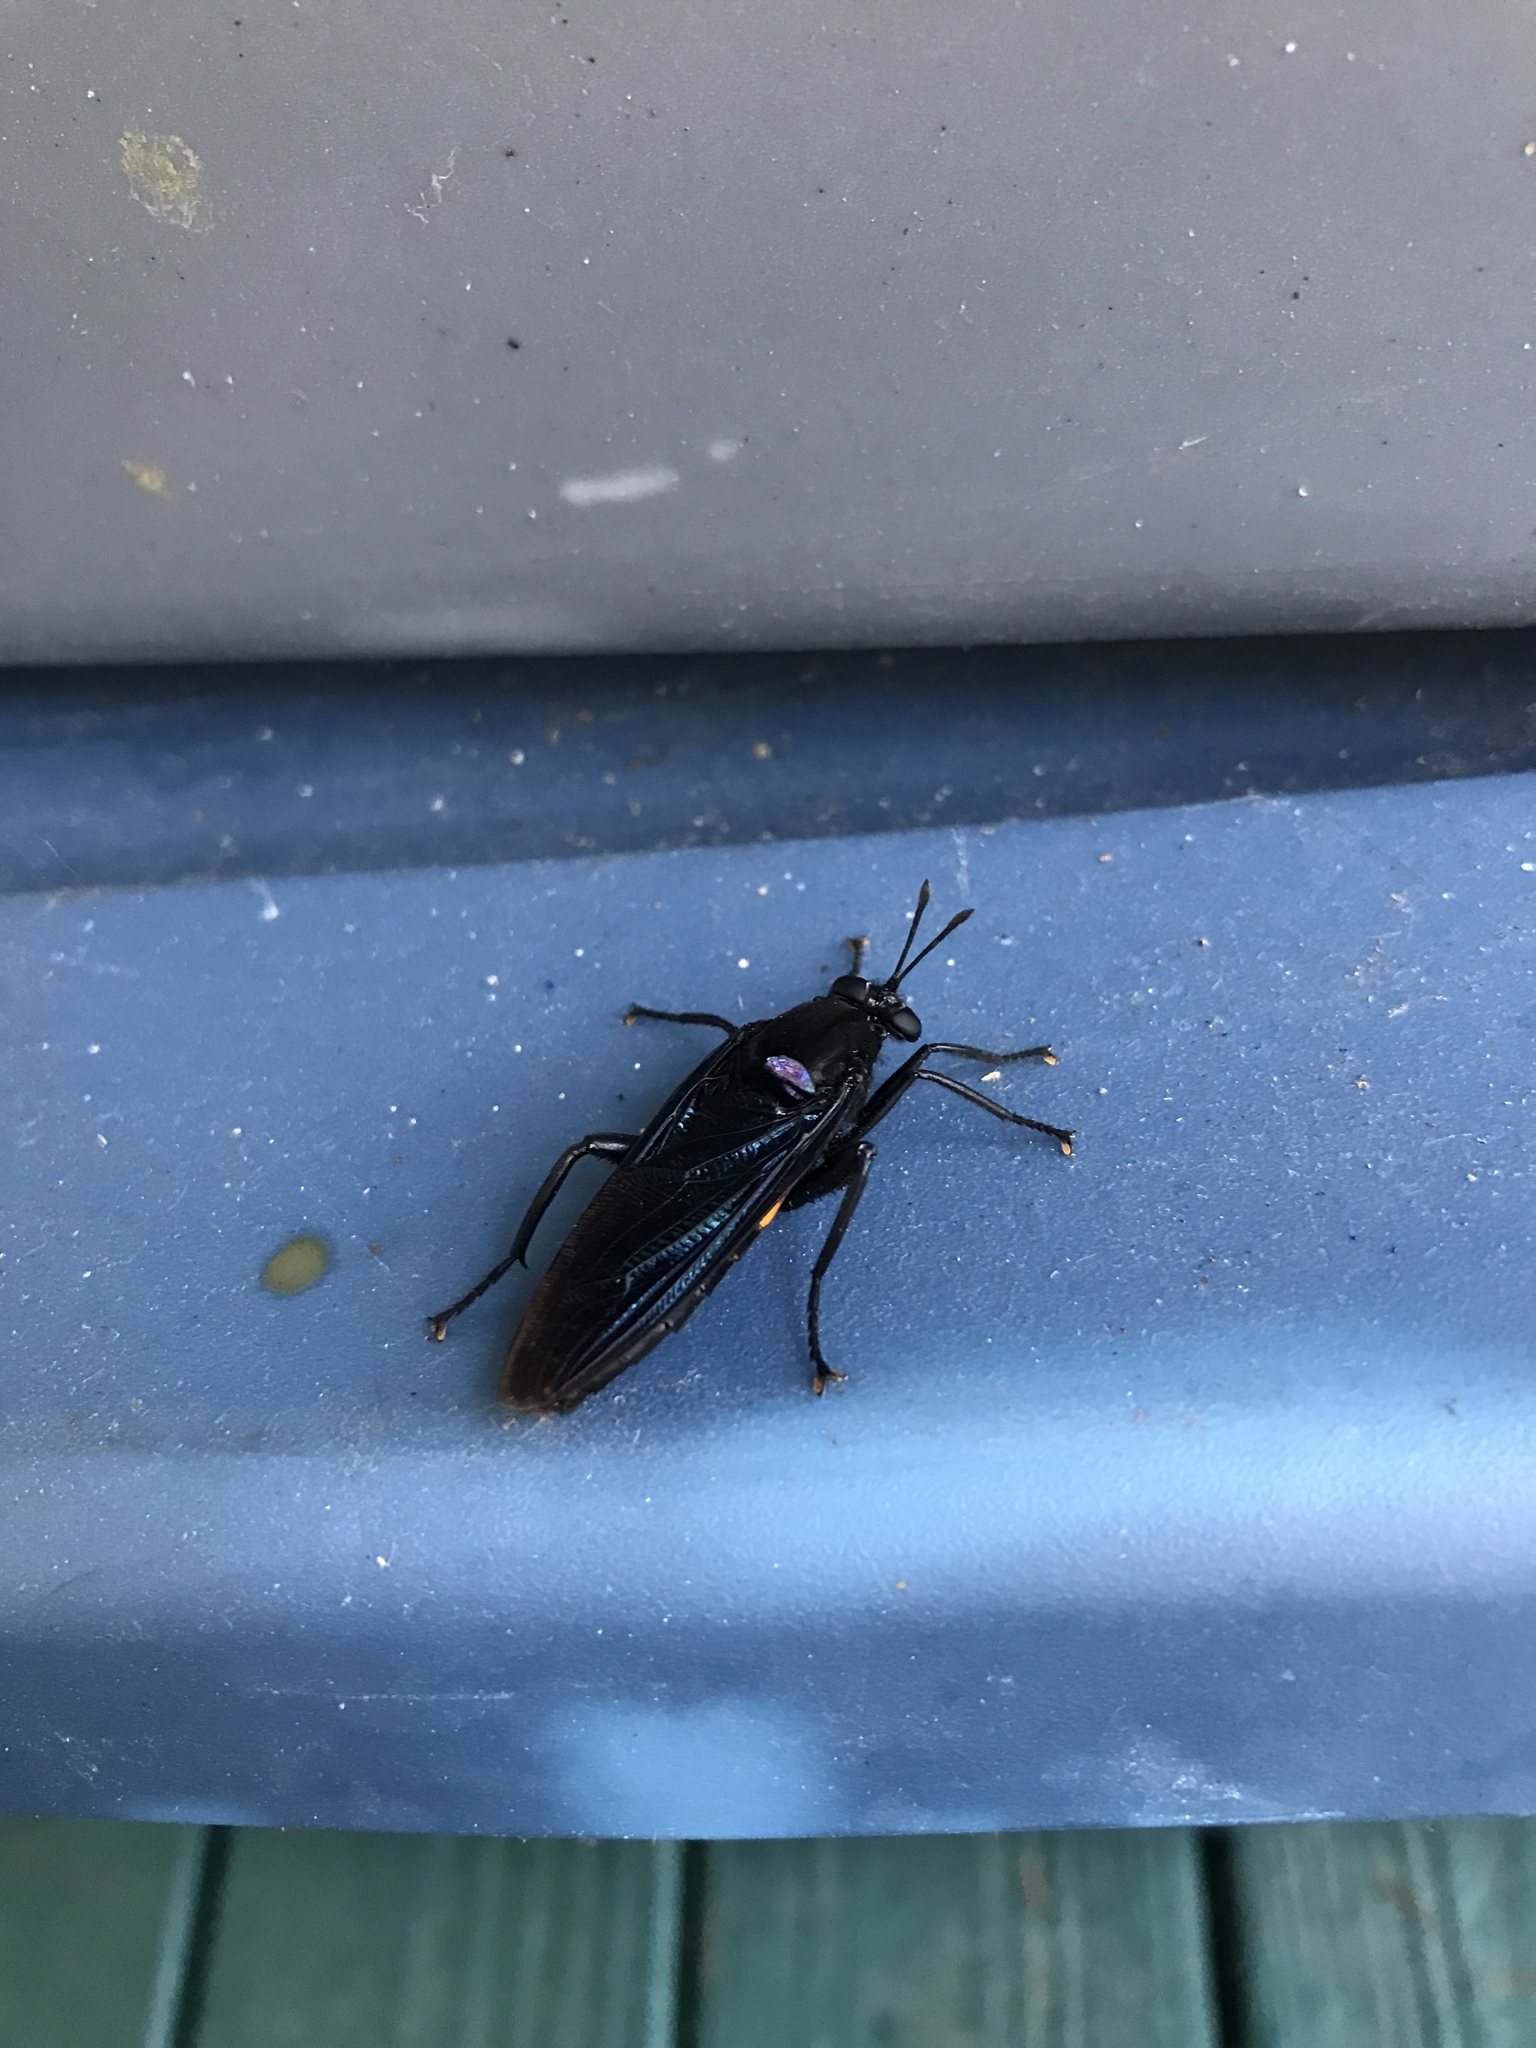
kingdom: Animalia
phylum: Arthropoda
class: Insecta
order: Diptera
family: Mydidae
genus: Mydas
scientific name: Mydas clavatus
